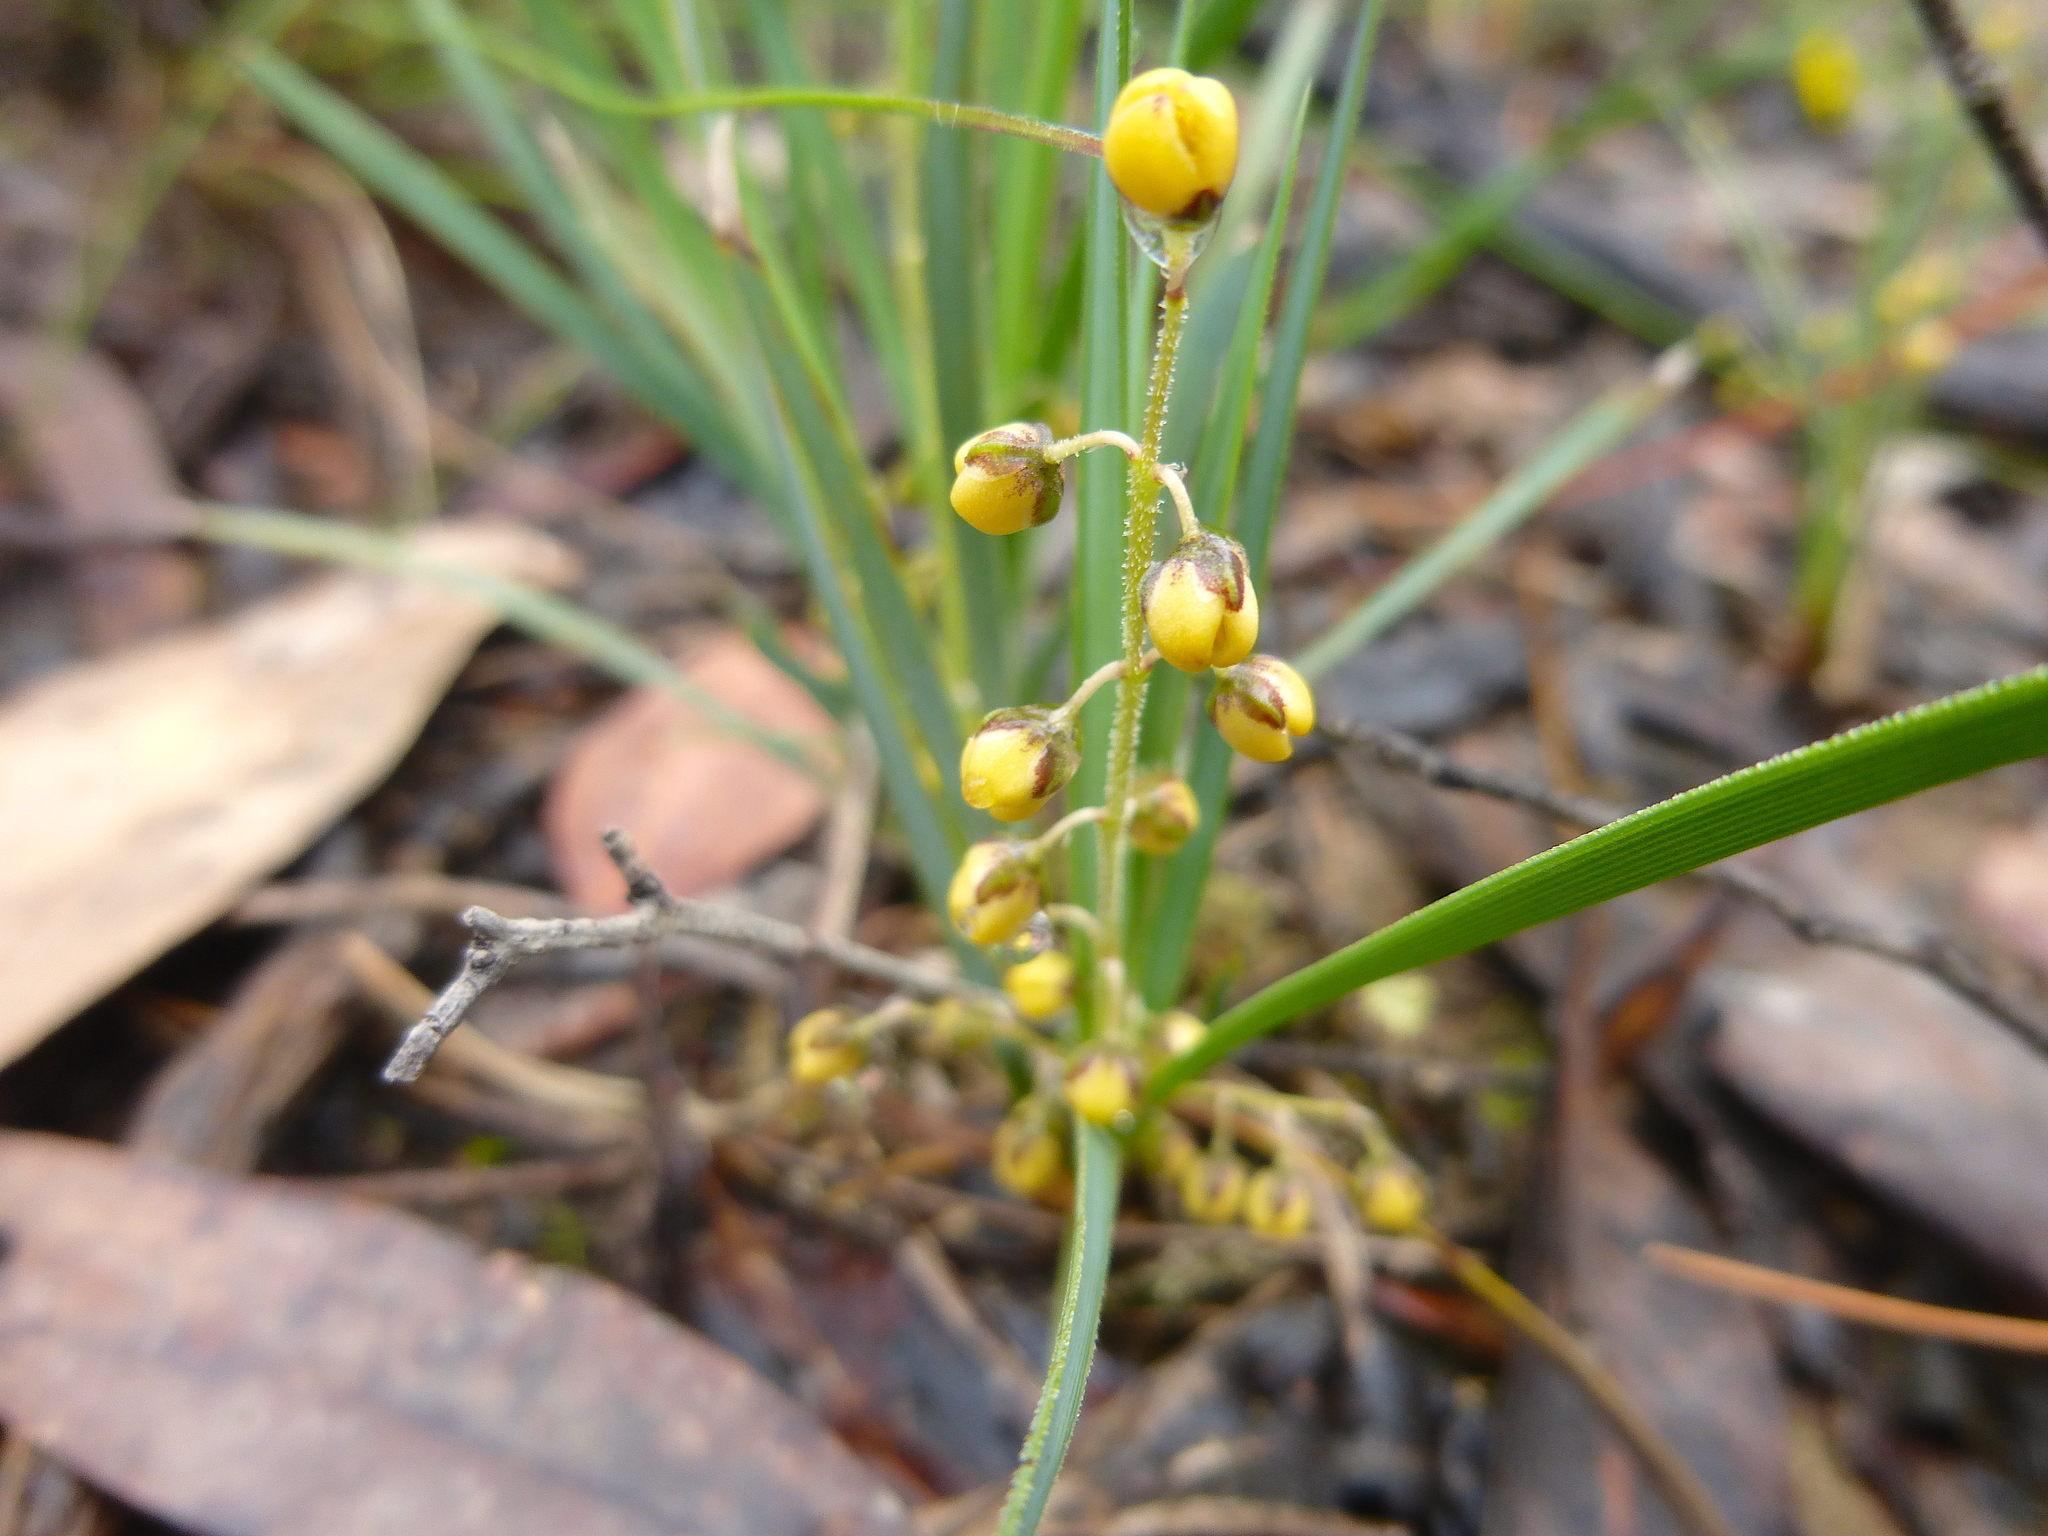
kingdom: Plantae
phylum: Tracheophyta
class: Liliopsida
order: Asparagales
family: Asparagaceae
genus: Lomandra
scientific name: Lomandra filiformis
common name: Wattle mat-rush
